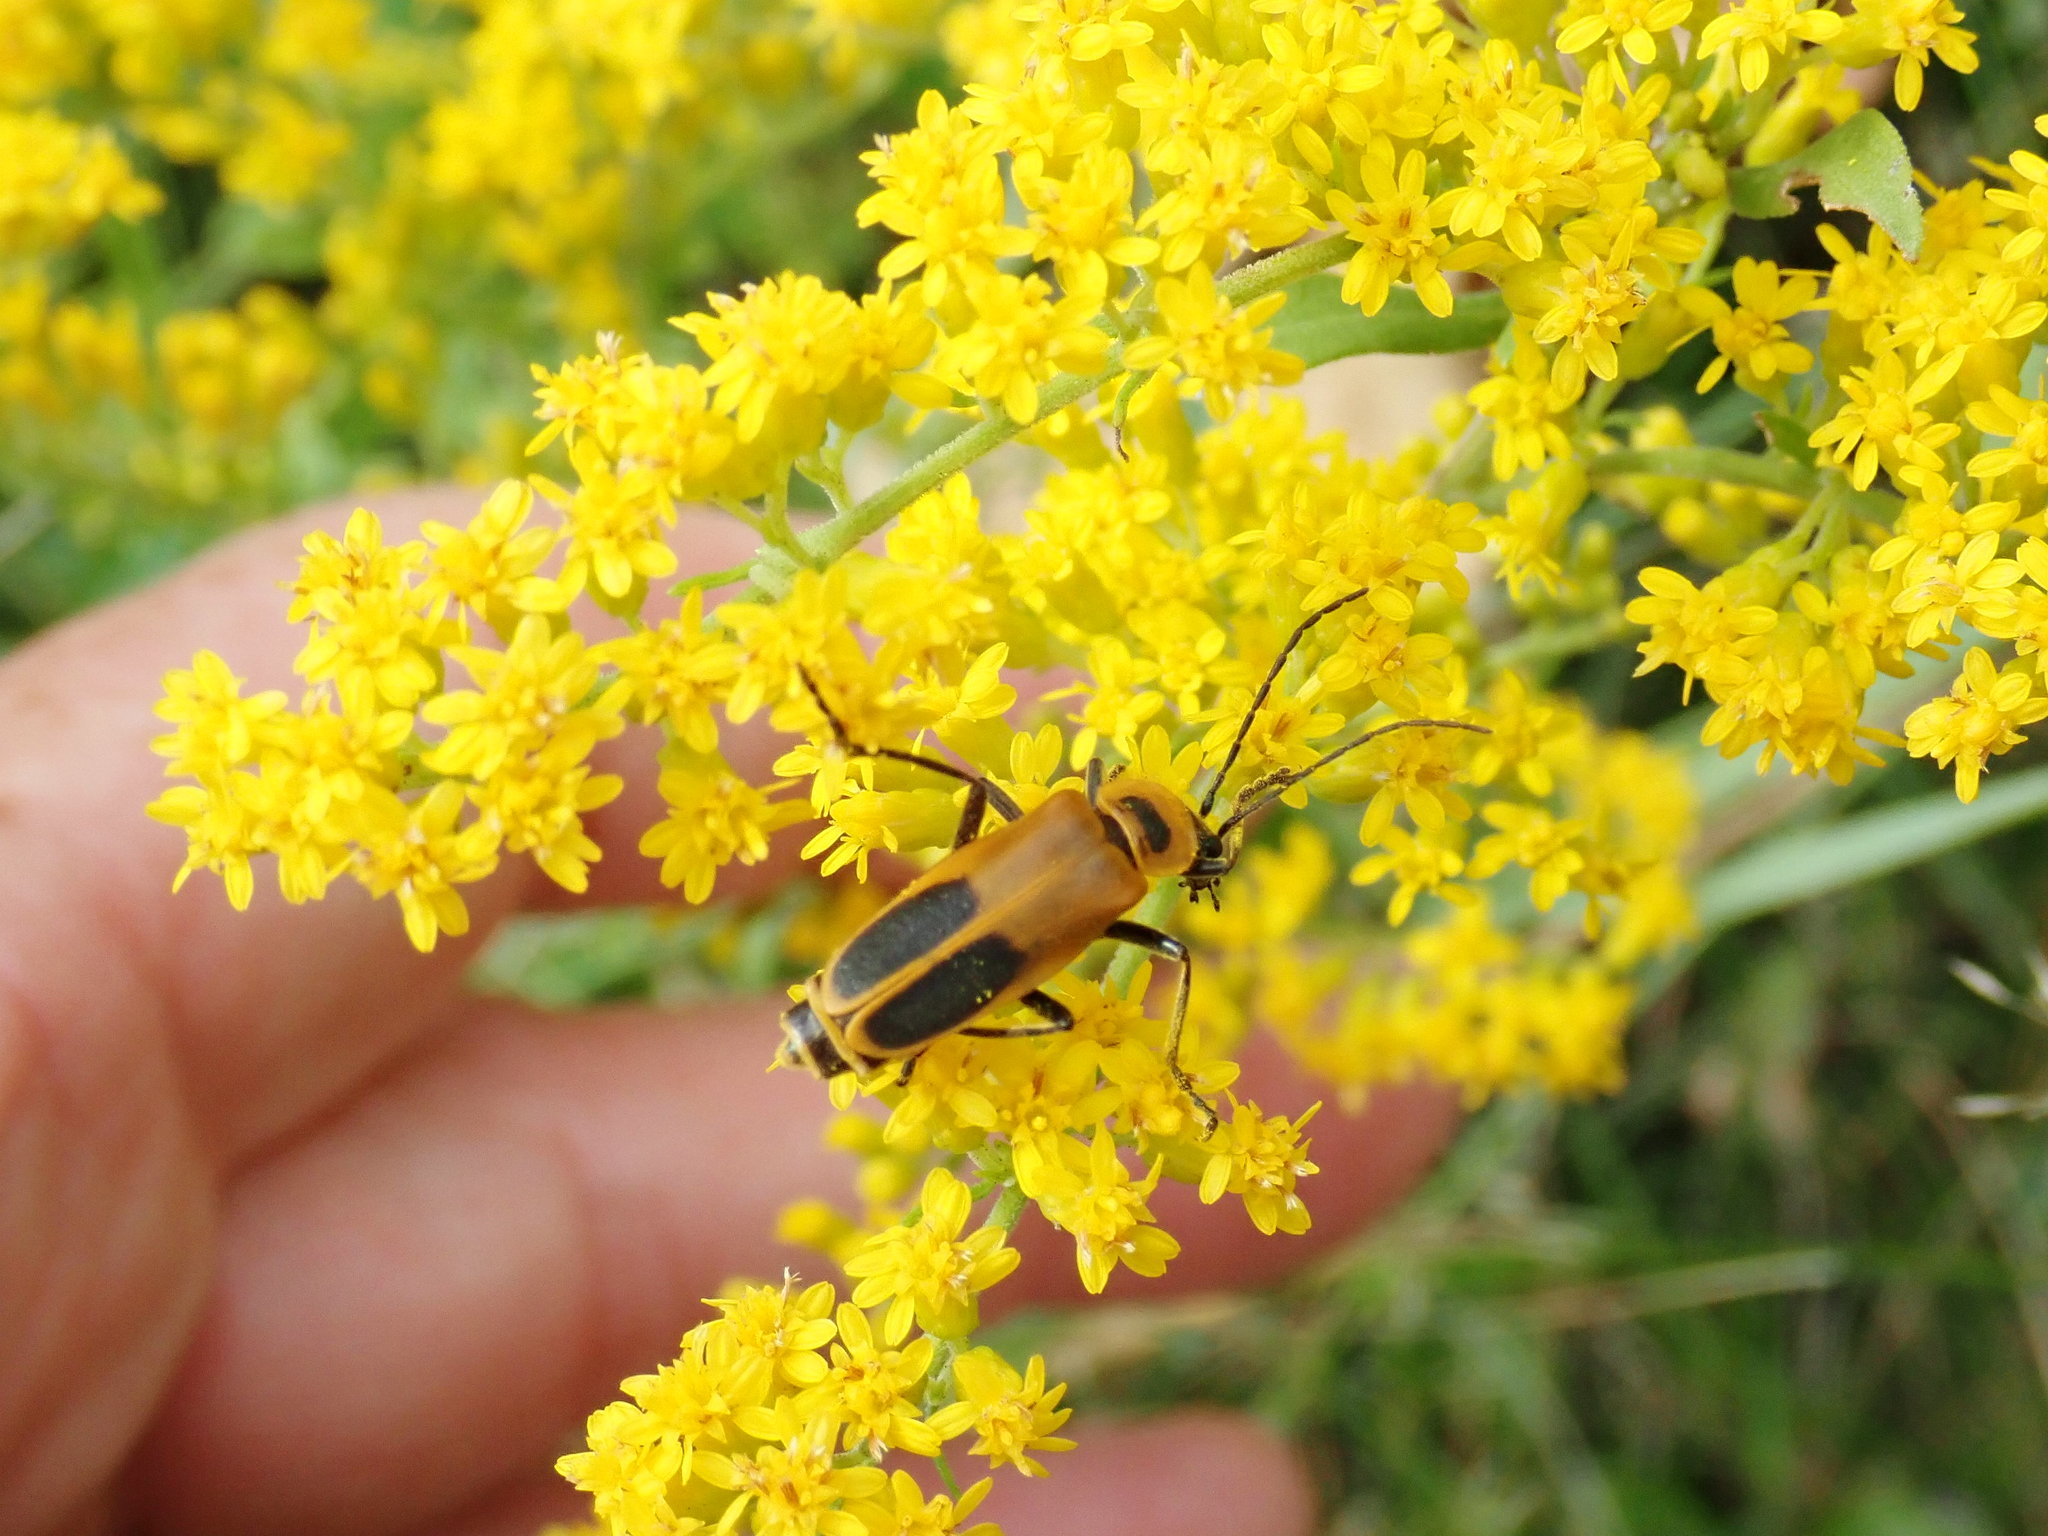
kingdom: Animalia
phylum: Arthropoda
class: Insecta
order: Coleoptera
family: Cantharidae
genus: Chauliognathus
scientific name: Chauliognathus pensylvanicus
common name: Goldenrod soldier beetle
